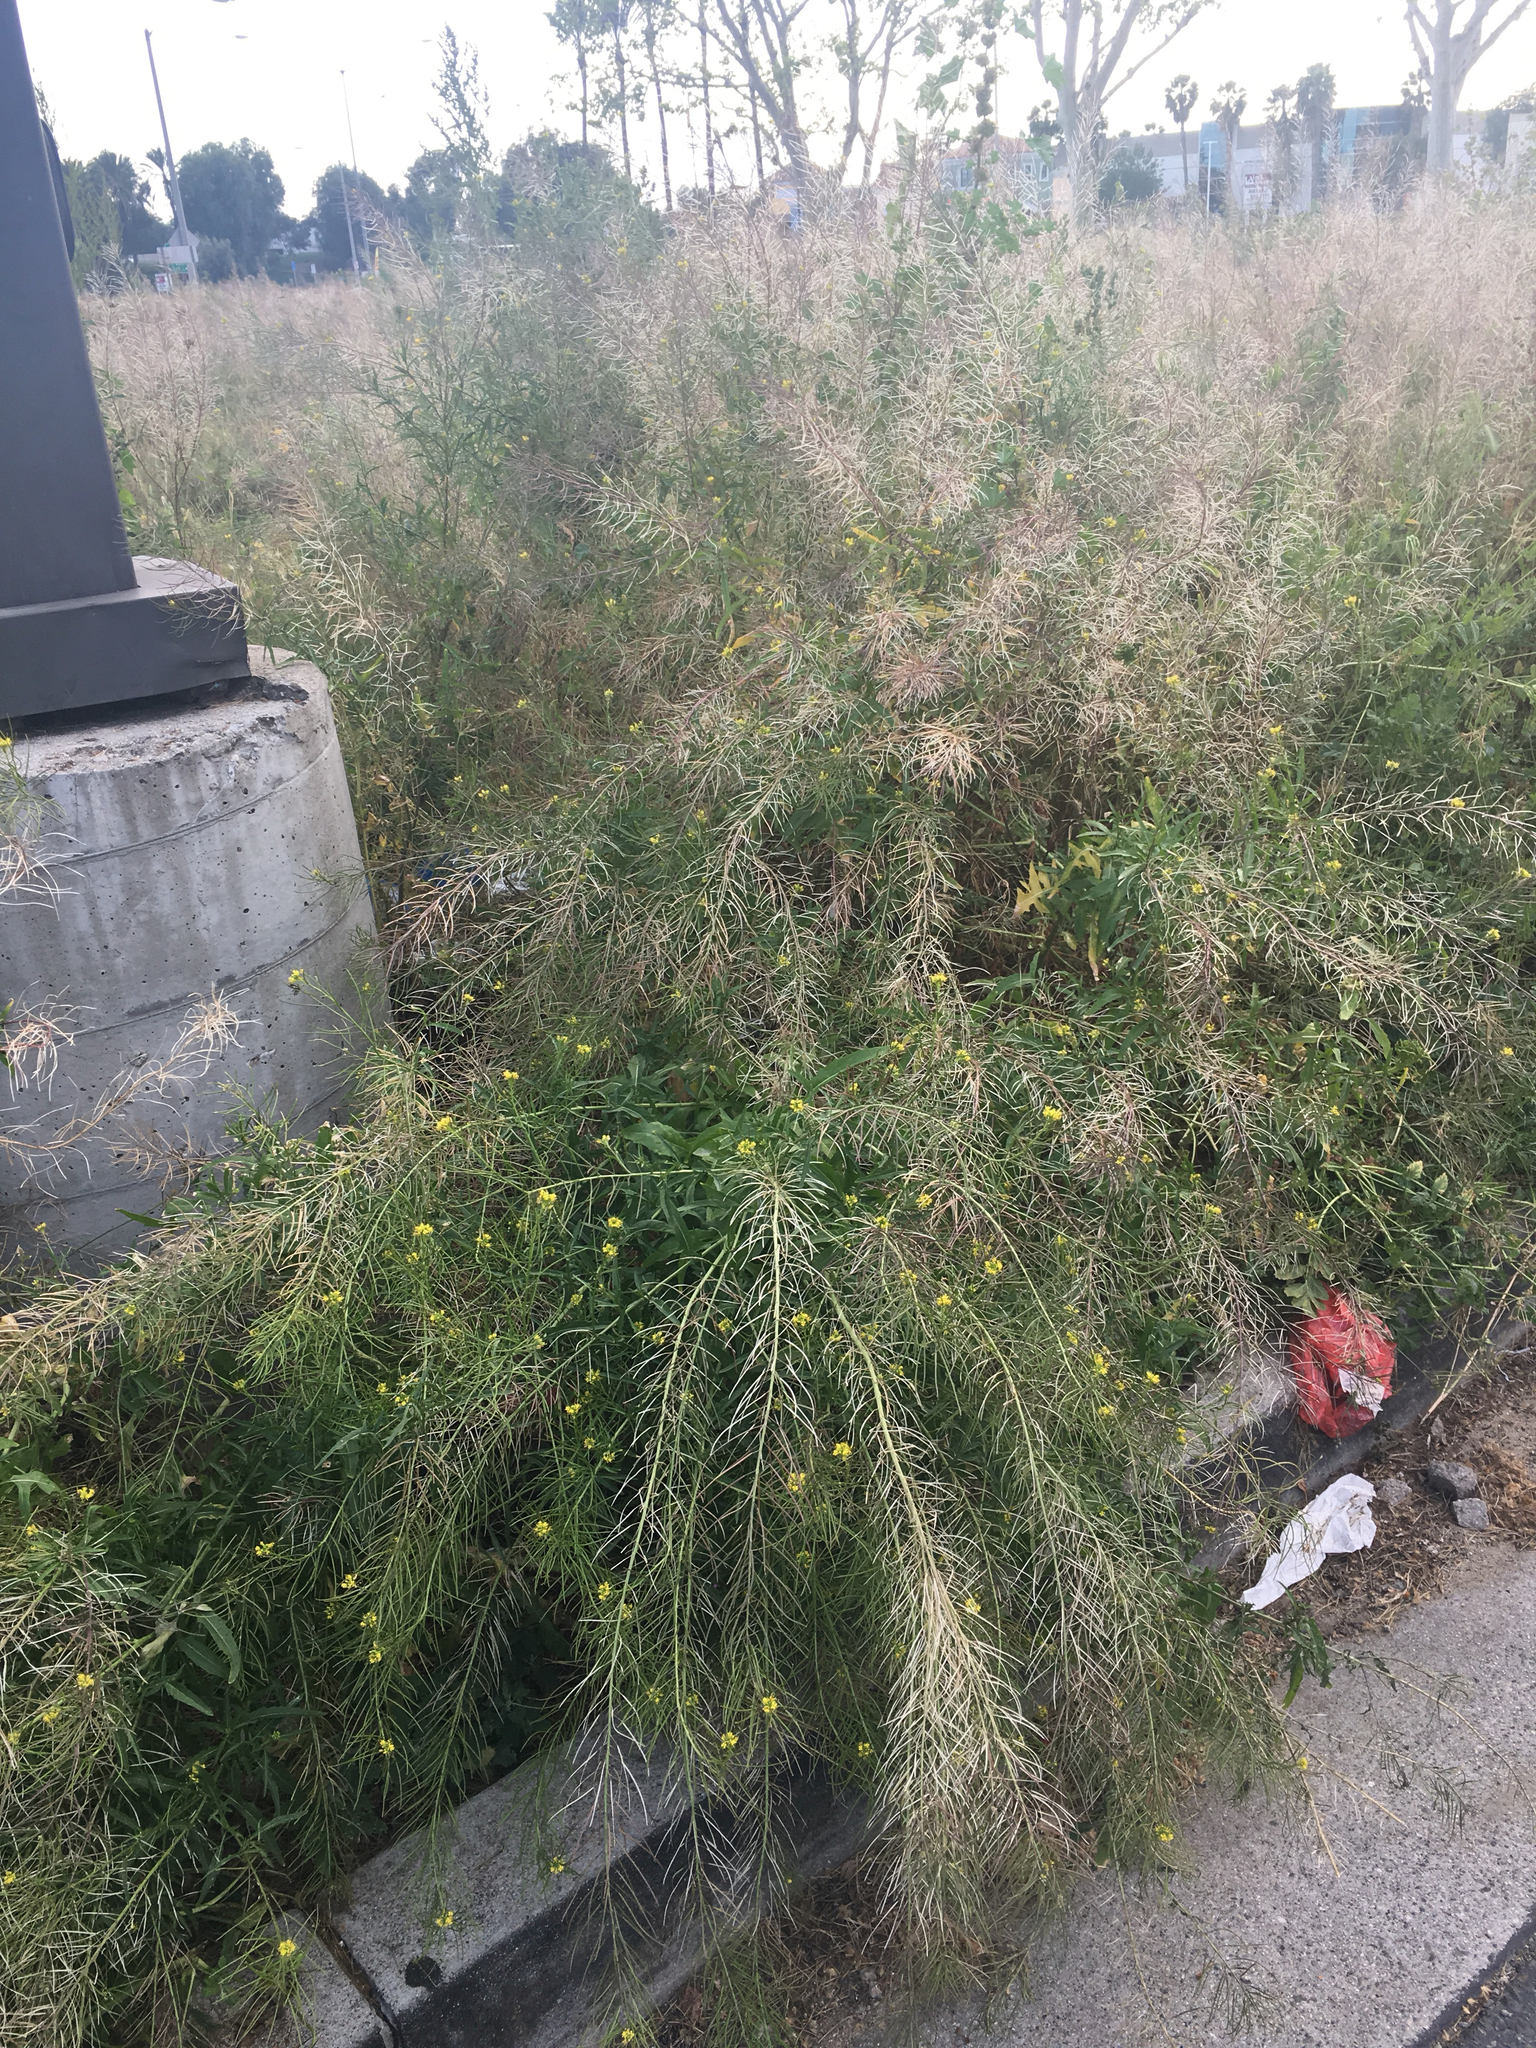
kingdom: Plantae
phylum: Tracheophyta
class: Magnoliopsida
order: Brassicales
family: Brassicaceae
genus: Sisymbrium
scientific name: Sisymbrium irio
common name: London rocket
